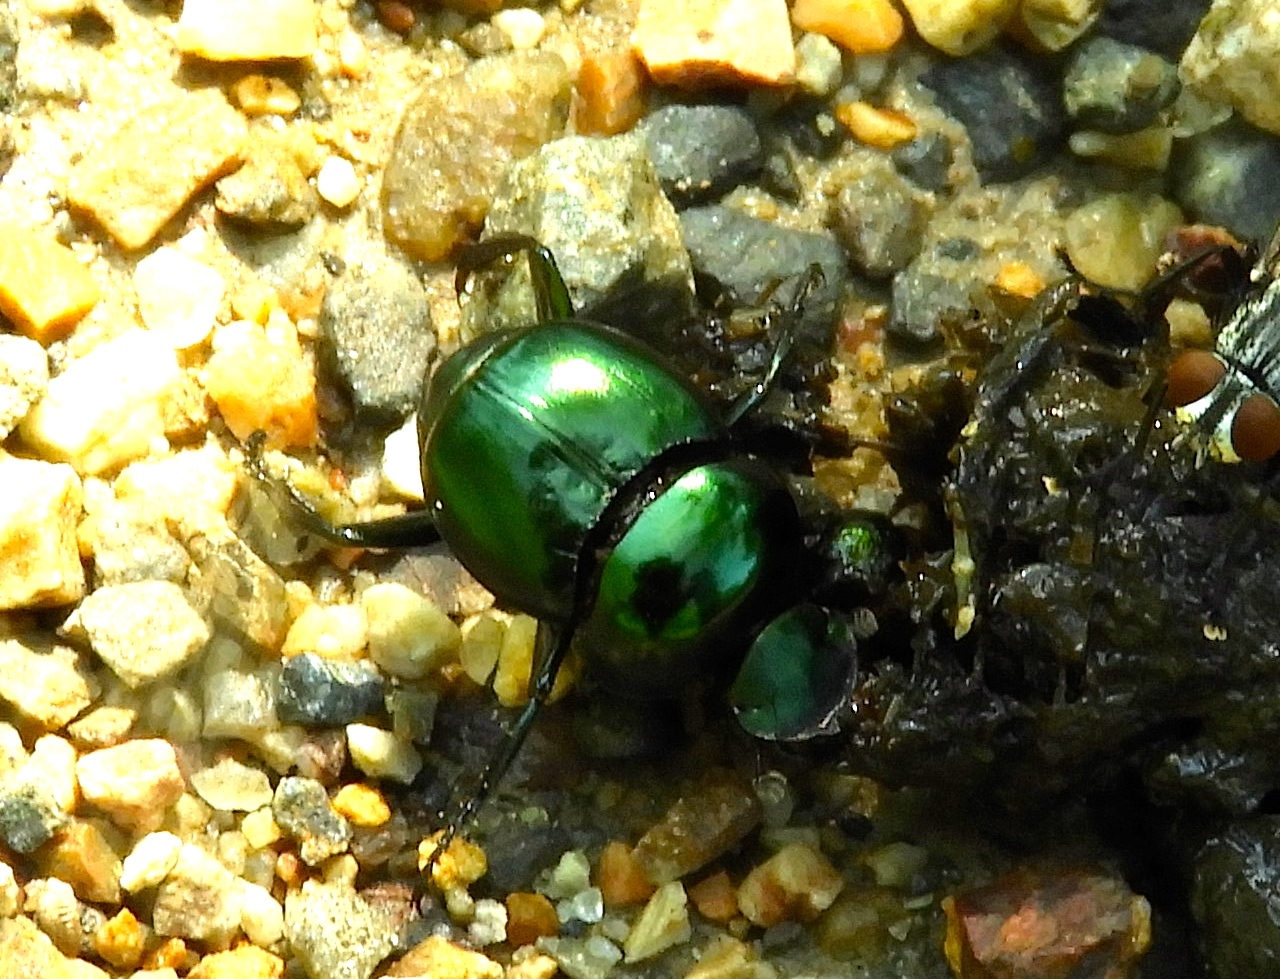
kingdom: Animalia
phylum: Arthropoda
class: Insecta
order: Coleoptera
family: Scarabaeidae
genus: Canthon
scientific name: Canthon
